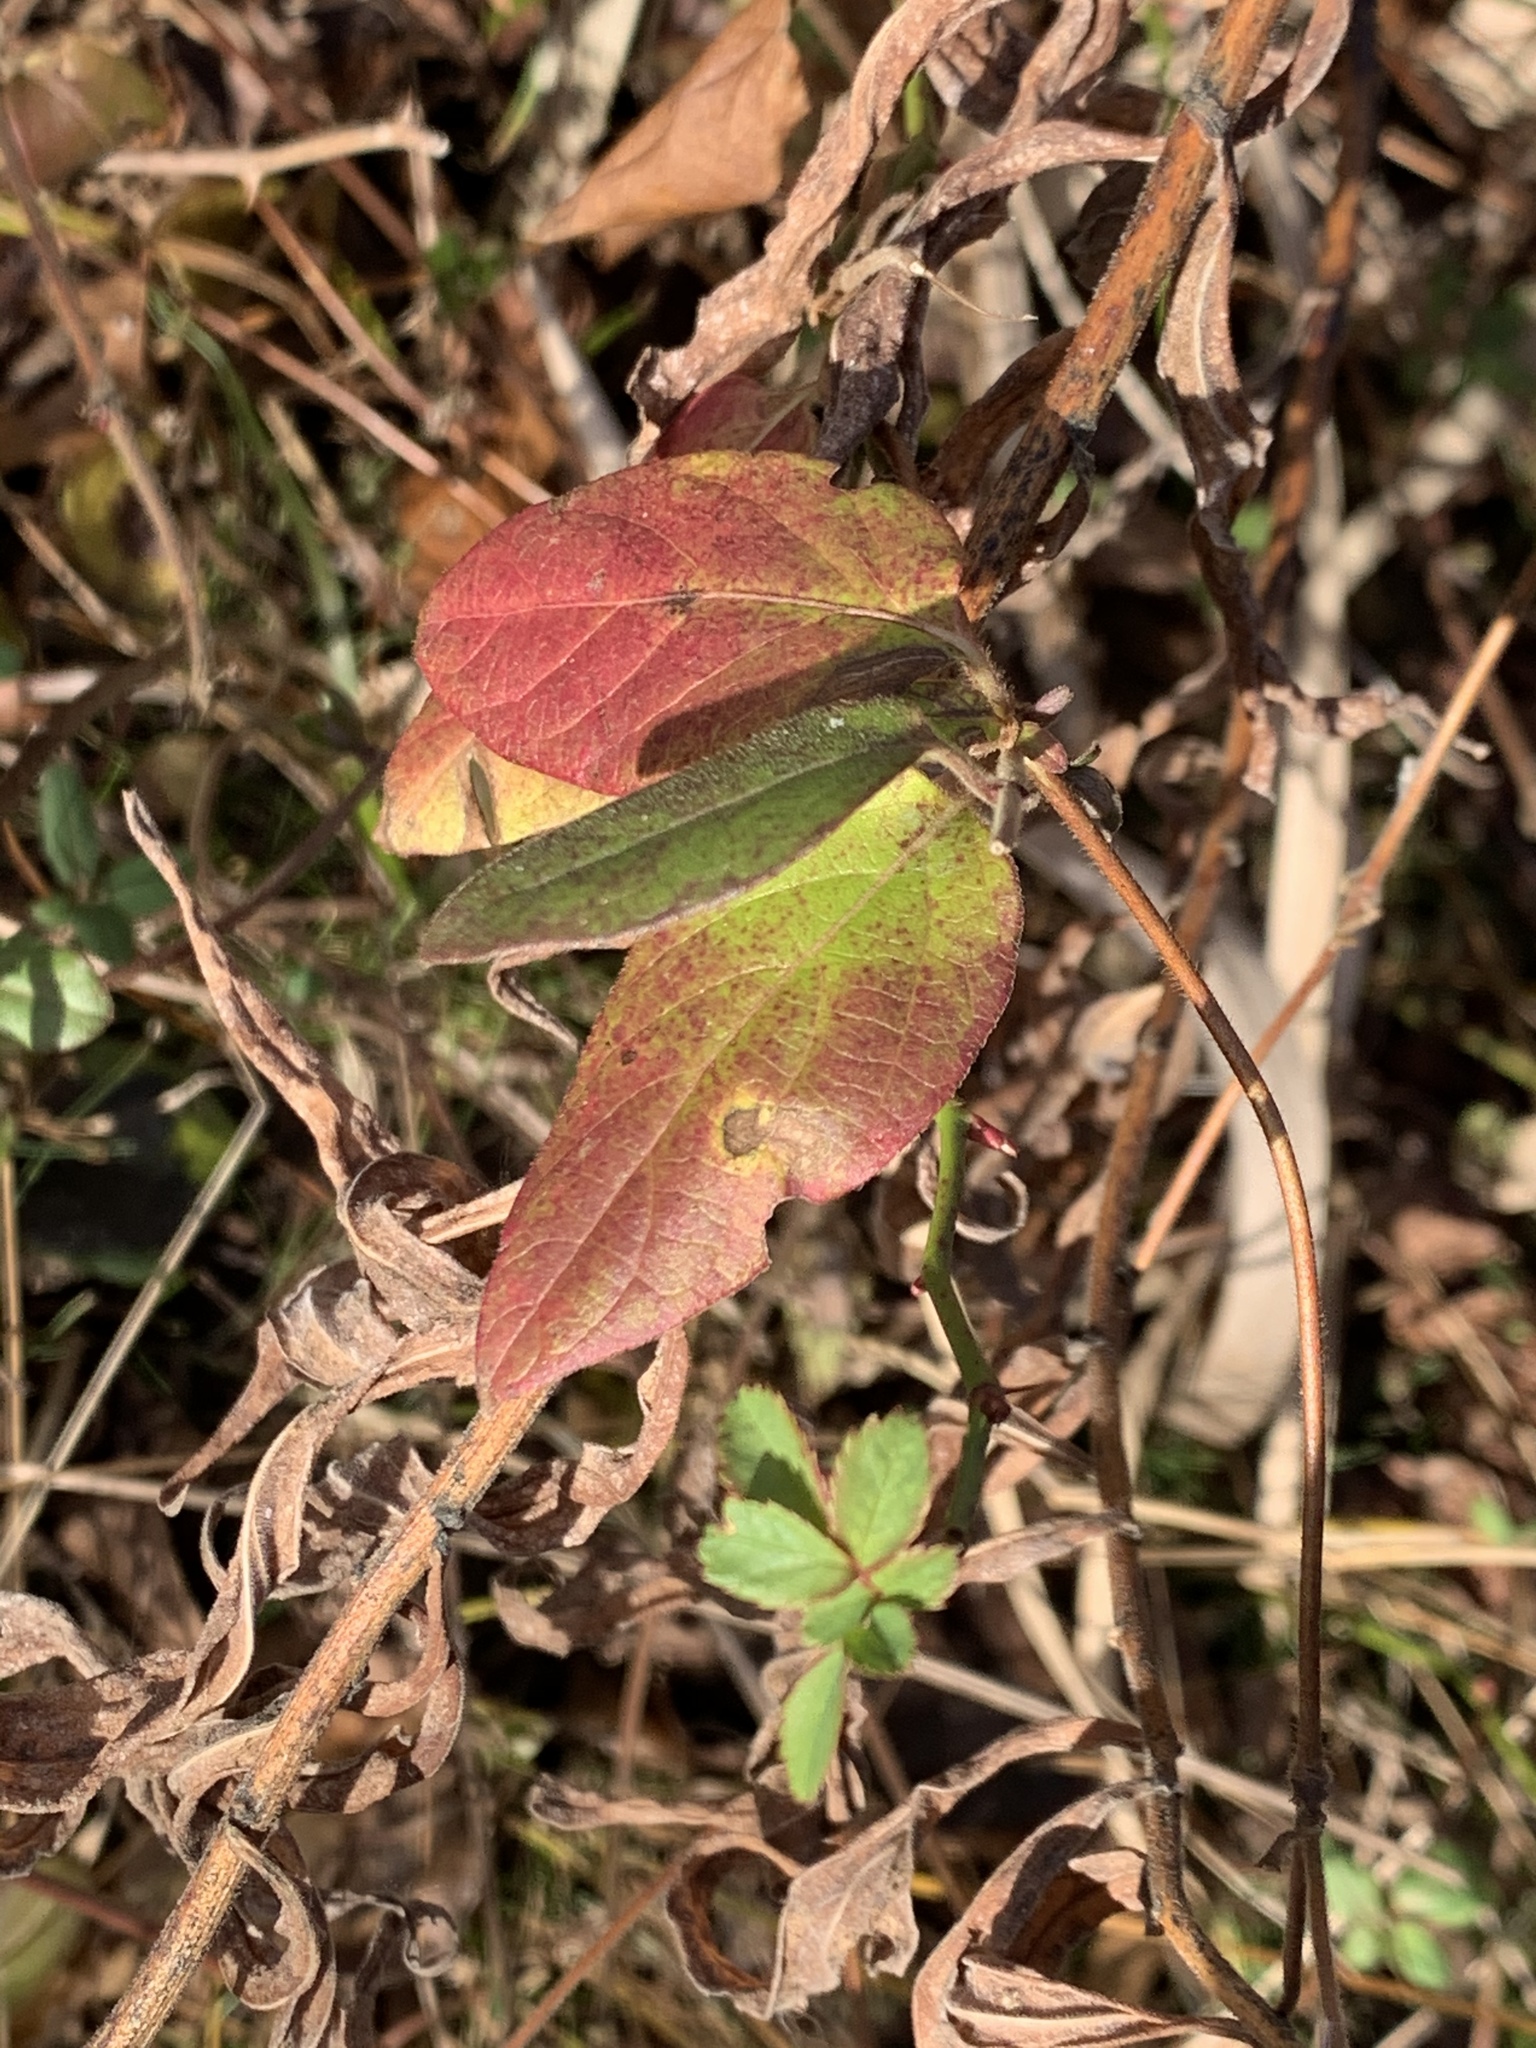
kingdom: Plantae
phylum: Tracheophyta
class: Magnoliopsida
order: Dipsacales
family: Caprifoliaceae
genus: Lonicera
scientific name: Lonicera japonica
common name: Japanese honeysuckle
